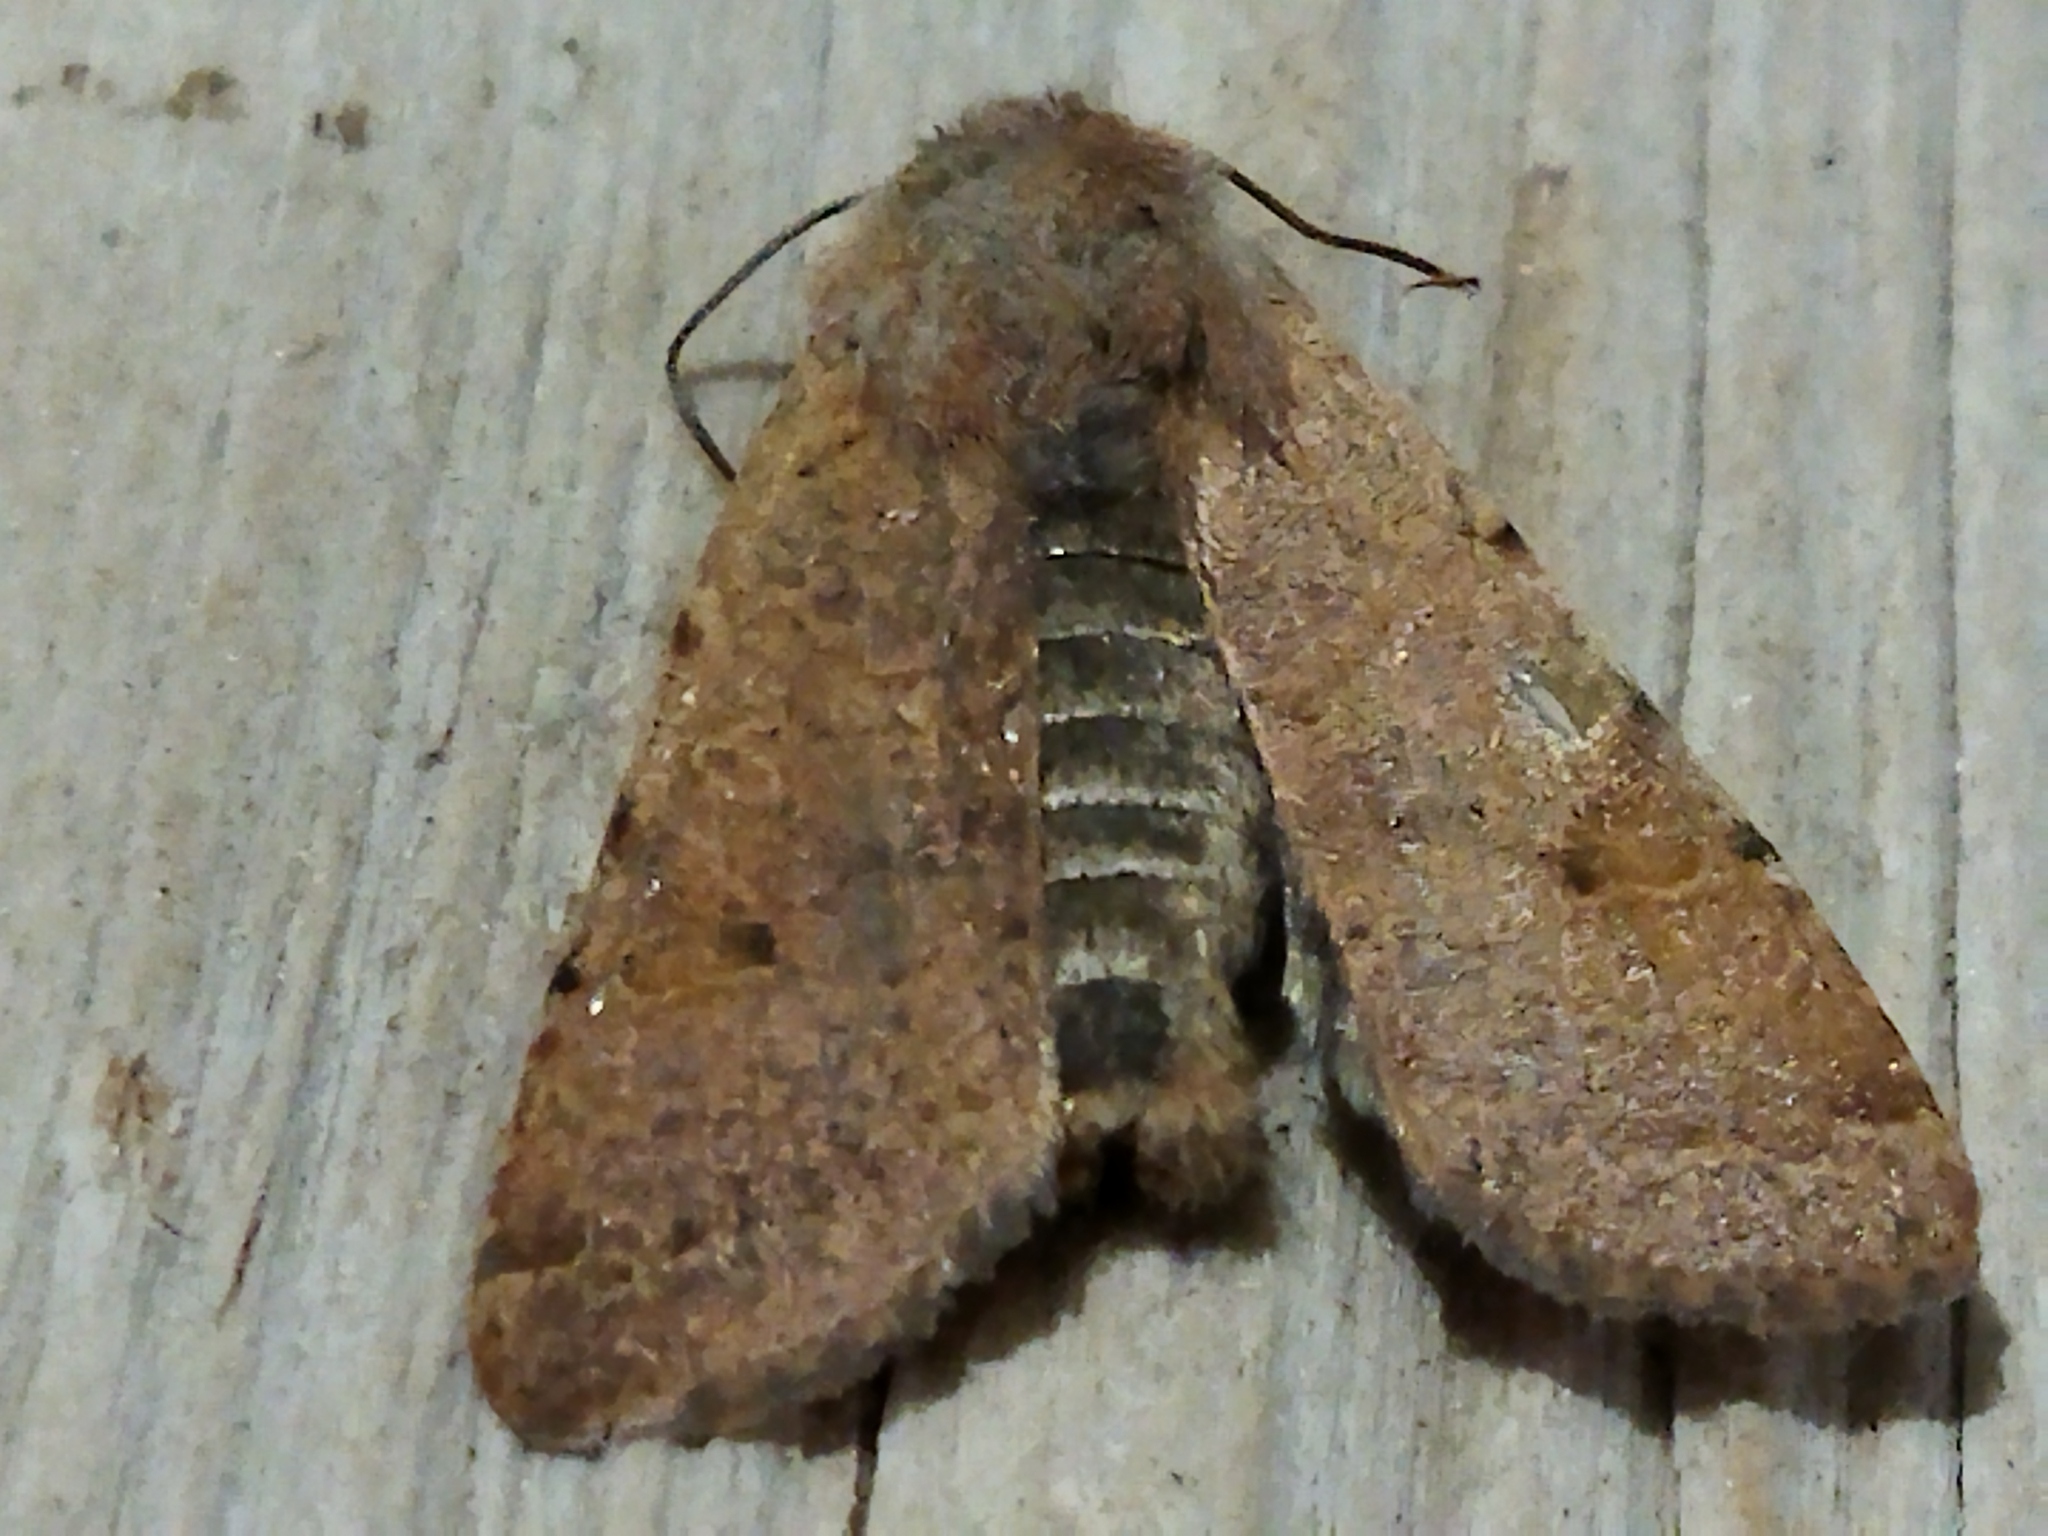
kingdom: Animalia
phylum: Arthropoda
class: Insecta
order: Lepidoptera
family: Noctuidae
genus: Agrochola
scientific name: Agrochola lychnidis
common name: Beaded chestnut
